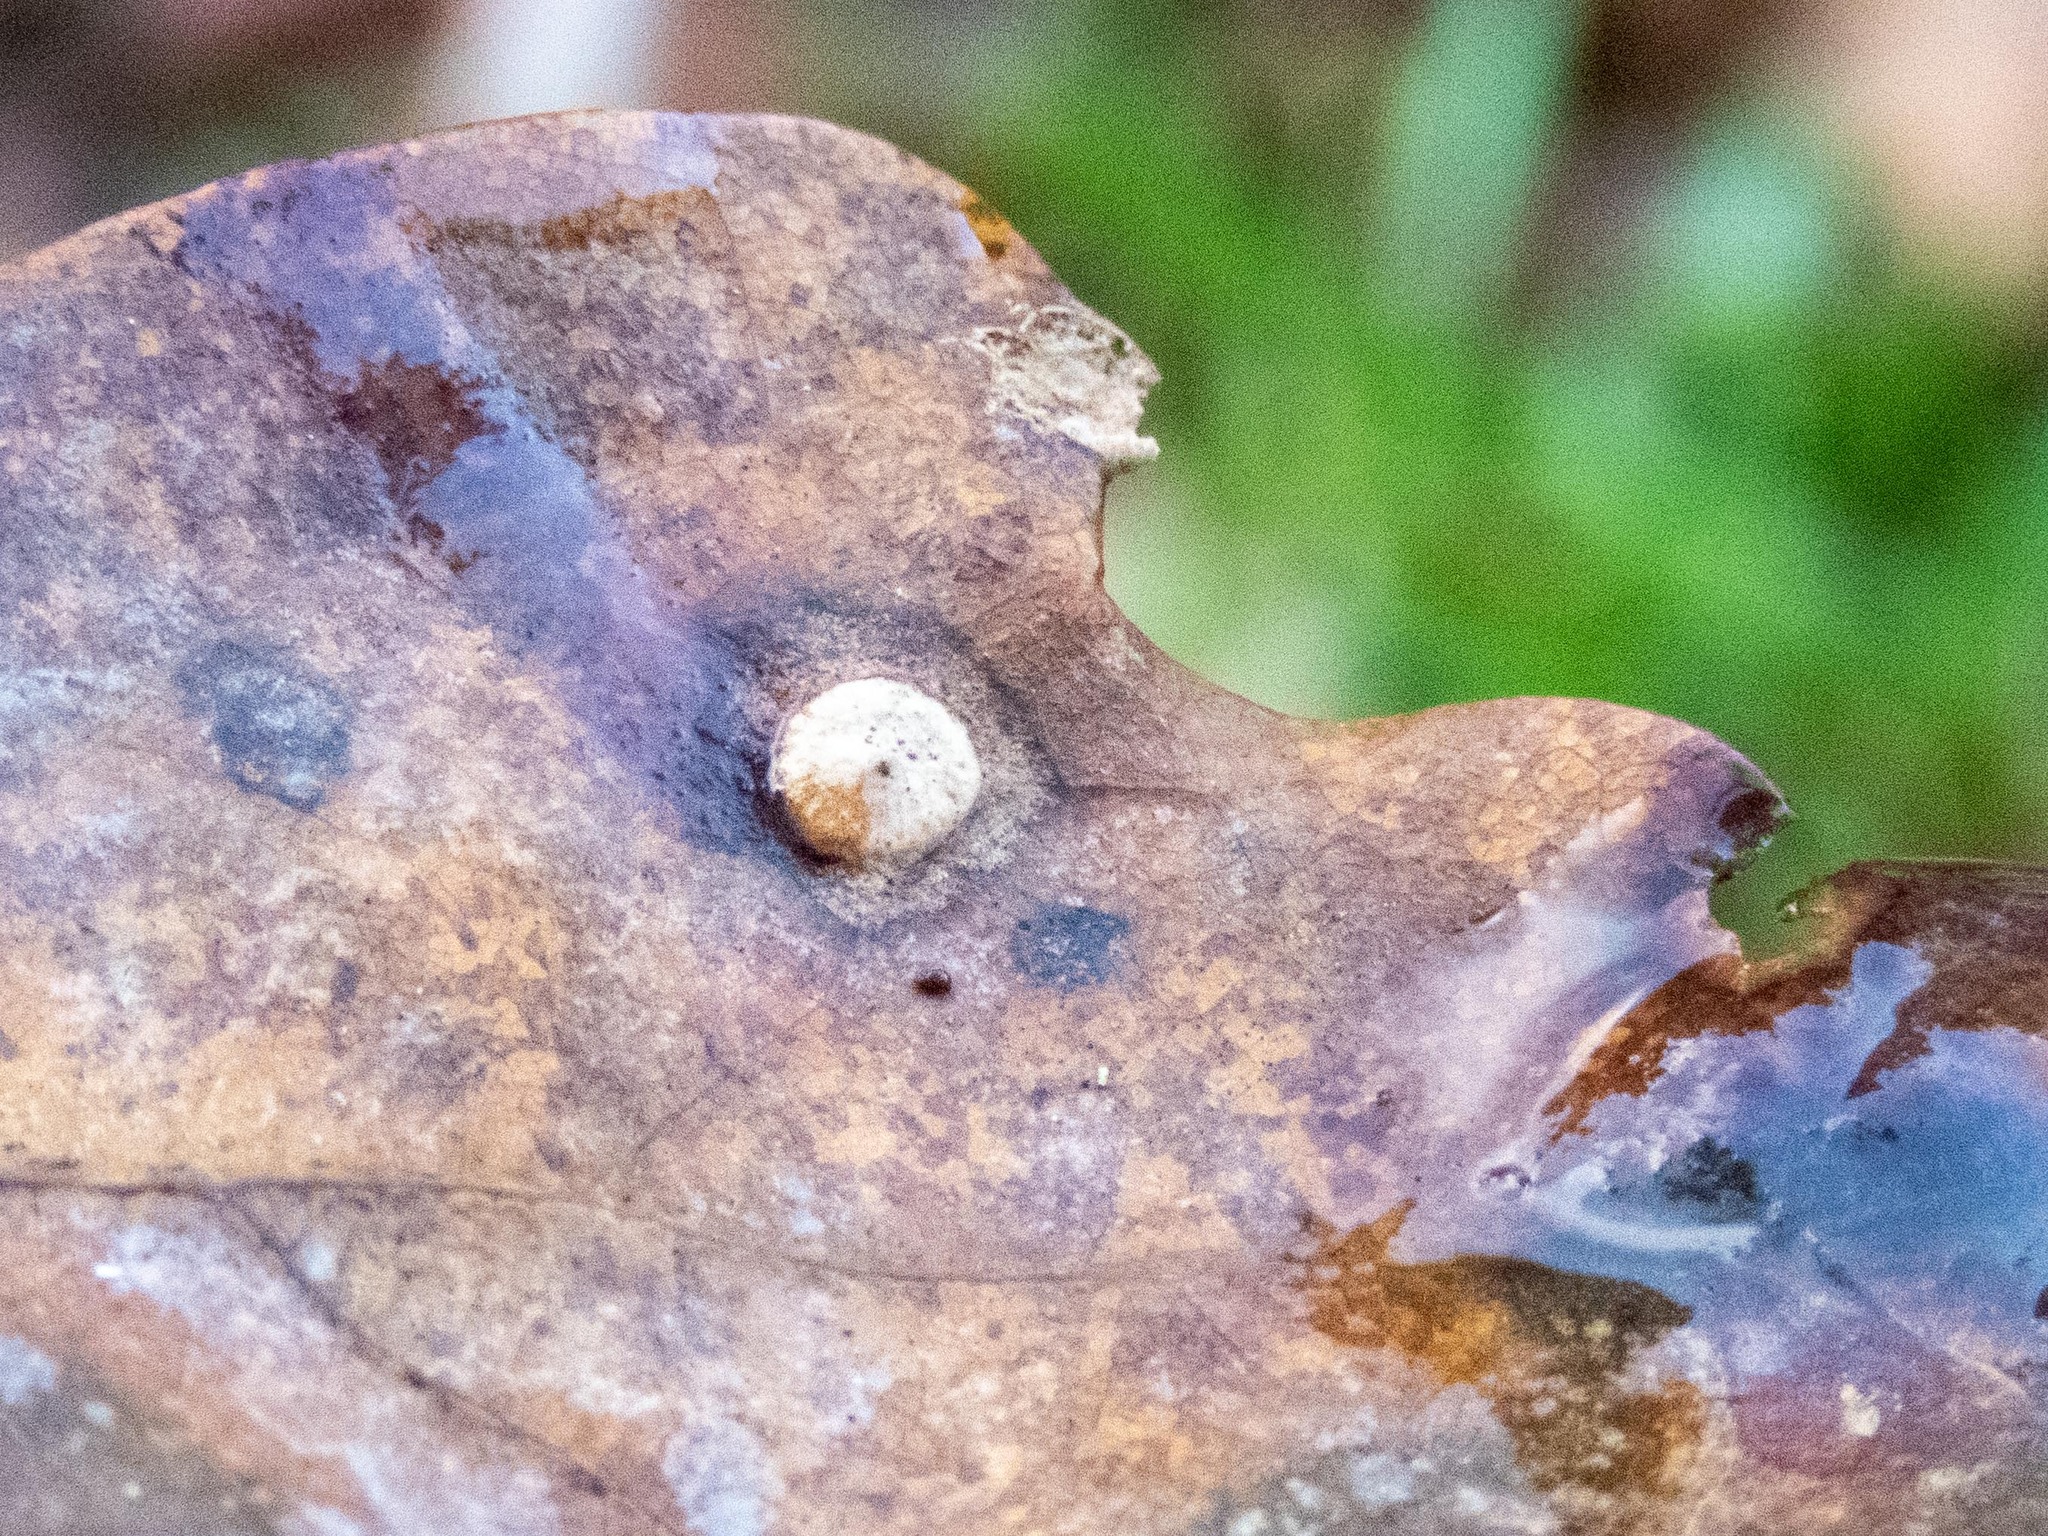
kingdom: Animalia
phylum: Arthropoda
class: Insecta
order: Hymenoptera
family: Cynipidae
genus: Neuroterus
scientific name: Neuroterus numismalis
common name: Silk-button spangle gall
